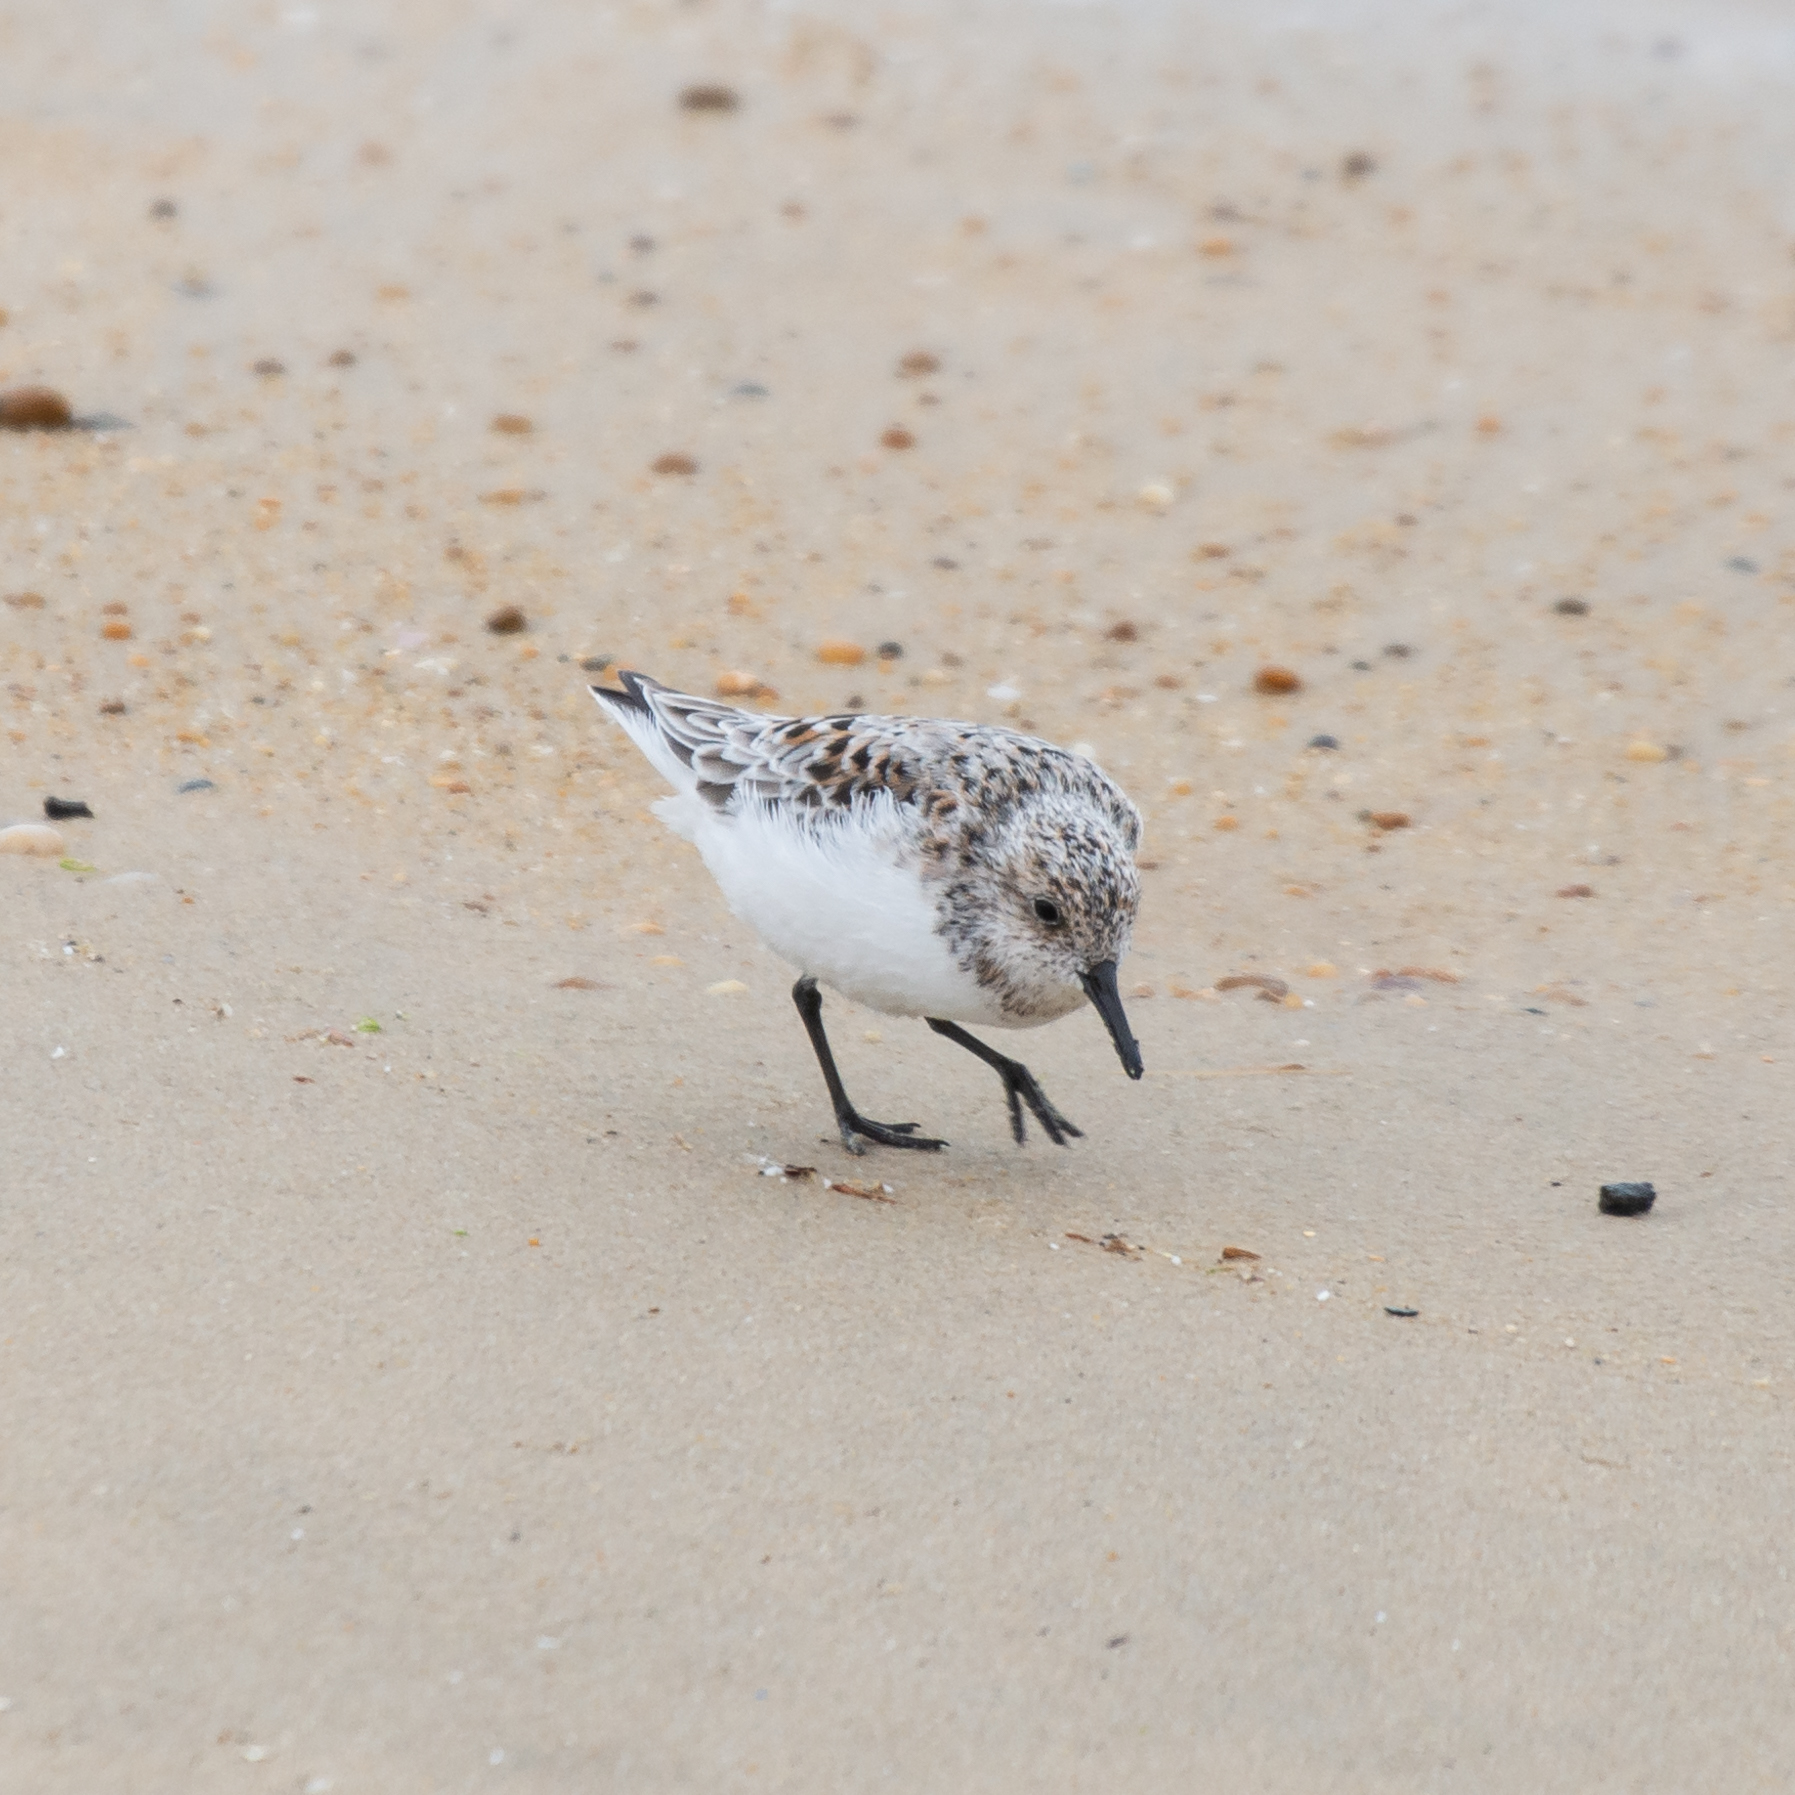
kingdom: Animalia
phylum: Chordata
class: Aves
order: Charadriiformes
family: Scolopacidae
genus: Calidris
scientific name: Calidris alba
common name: Sanderling
